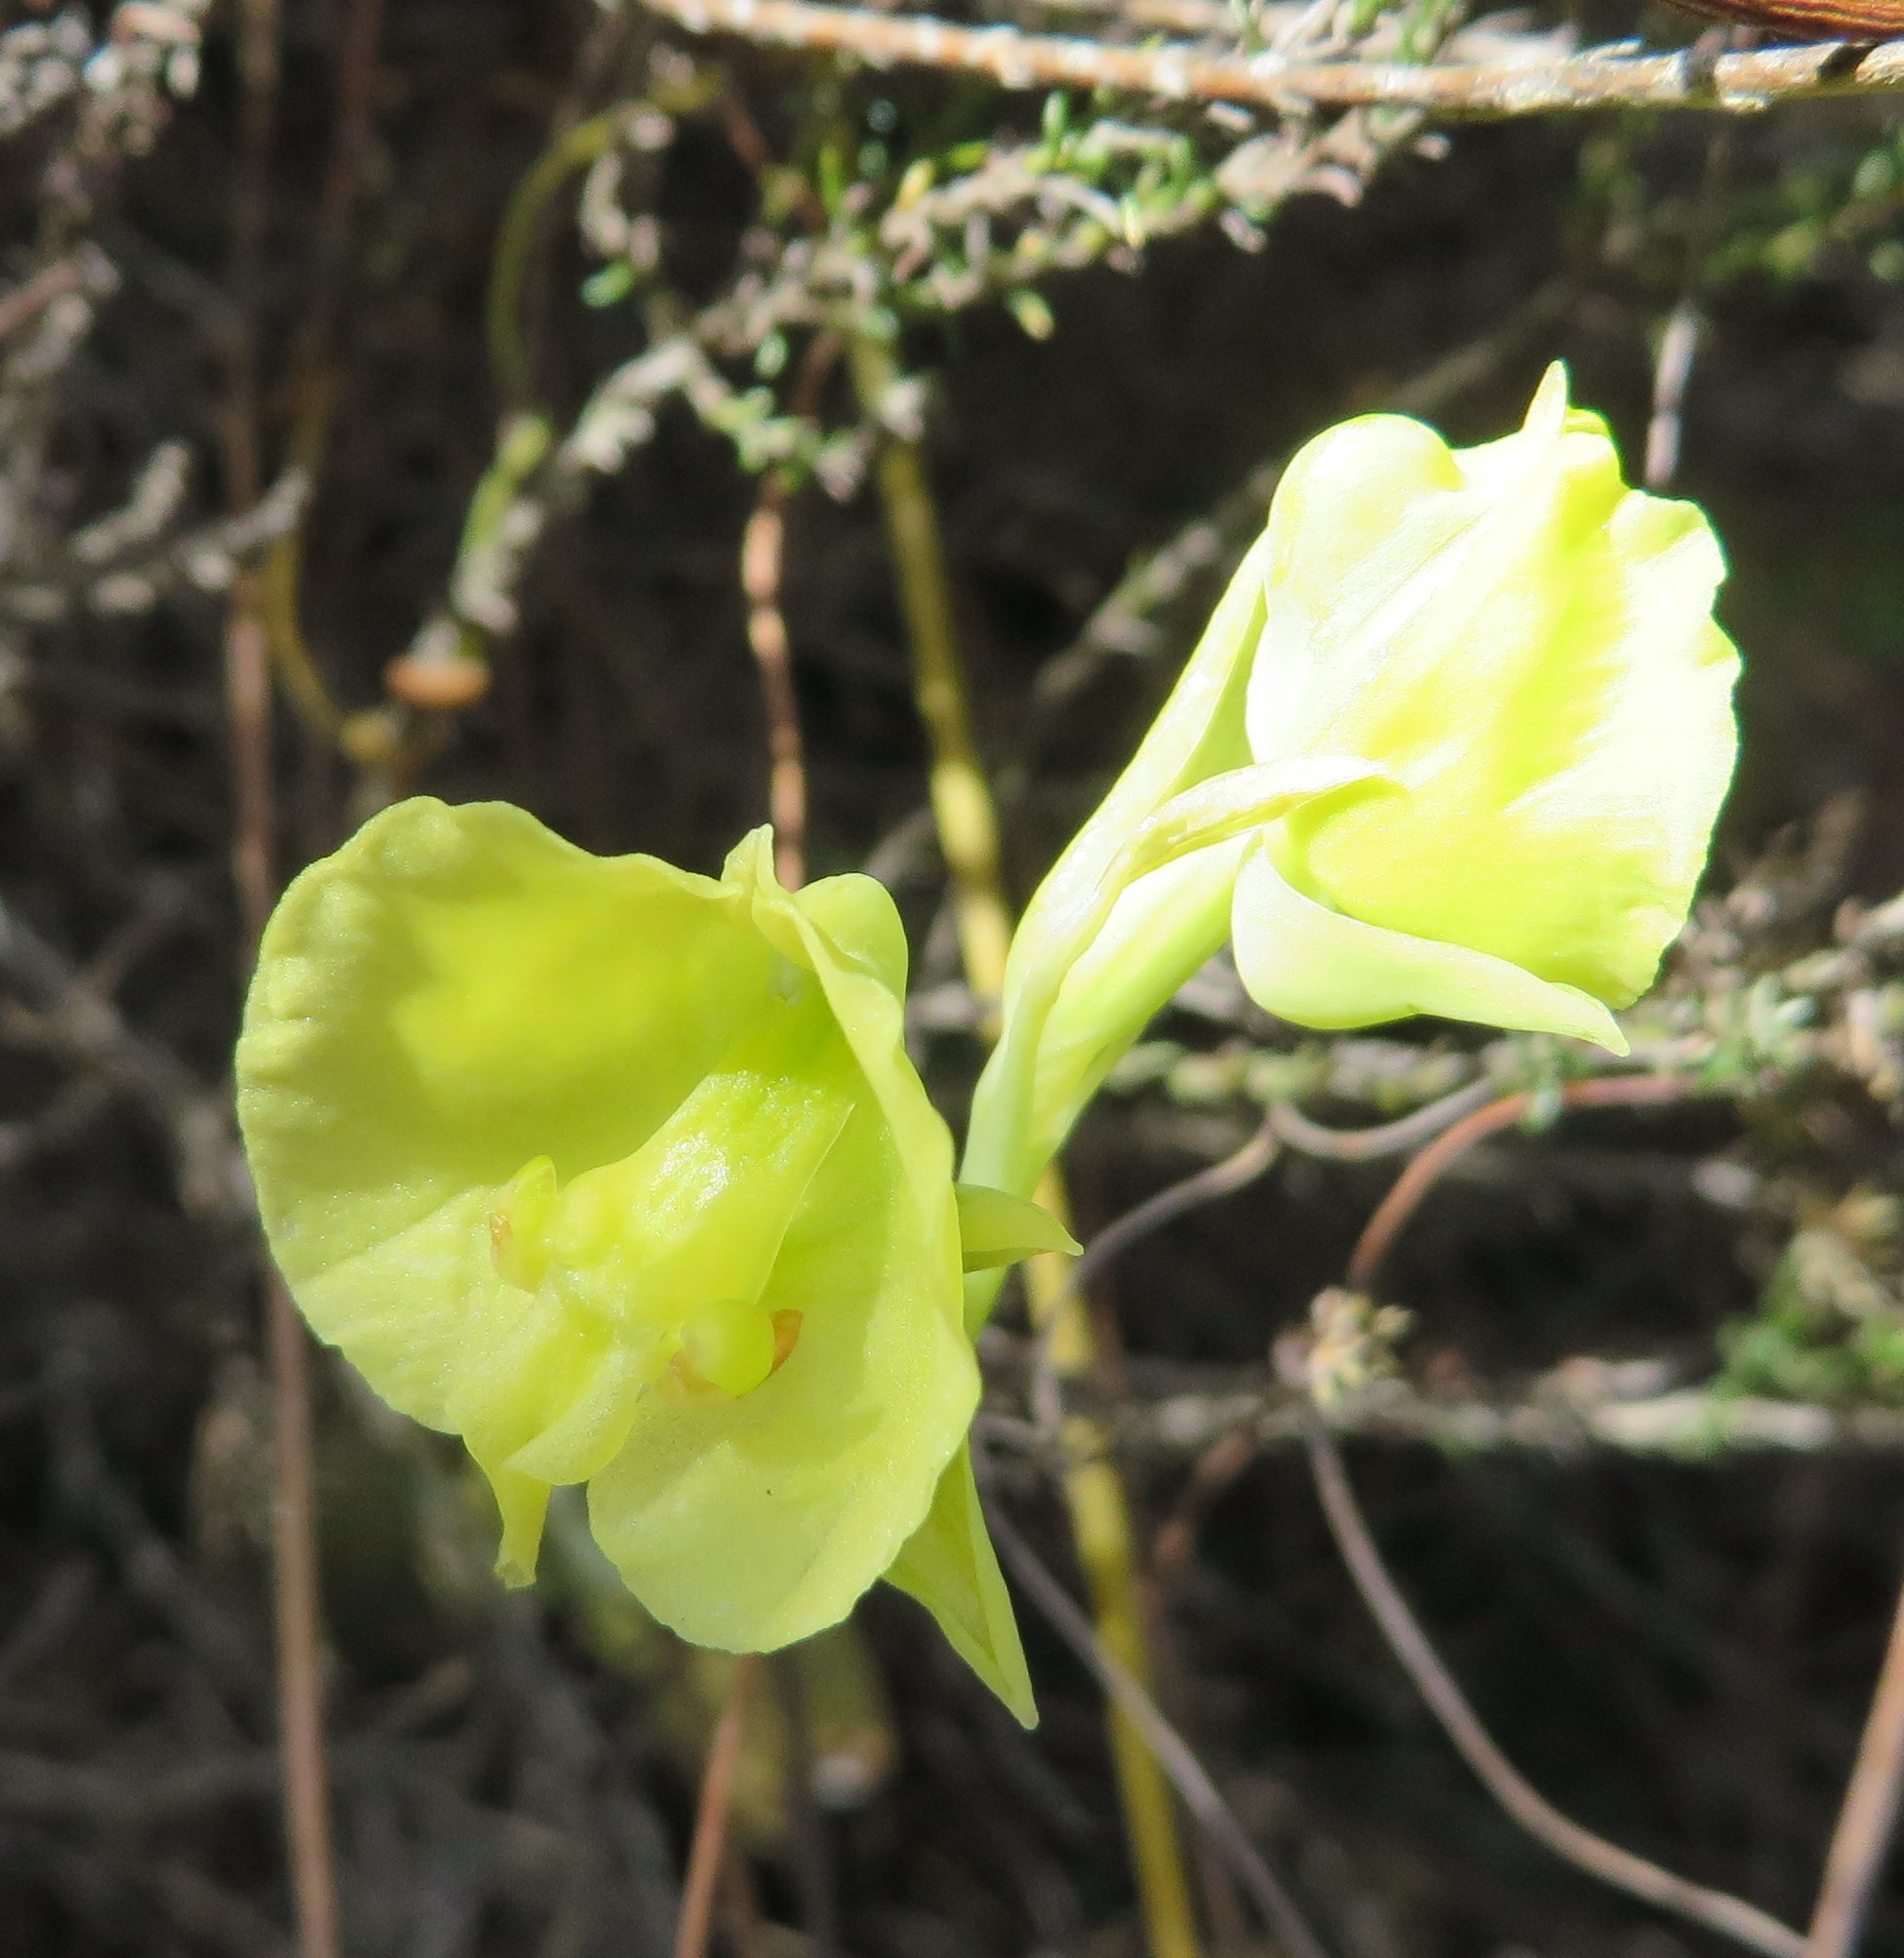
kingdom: Plantae
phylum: Tracheophyta
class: Liliopsida
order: Asparagales
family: Orchidaceae
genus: Pterygodium
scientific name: Pterygodium catholicum
